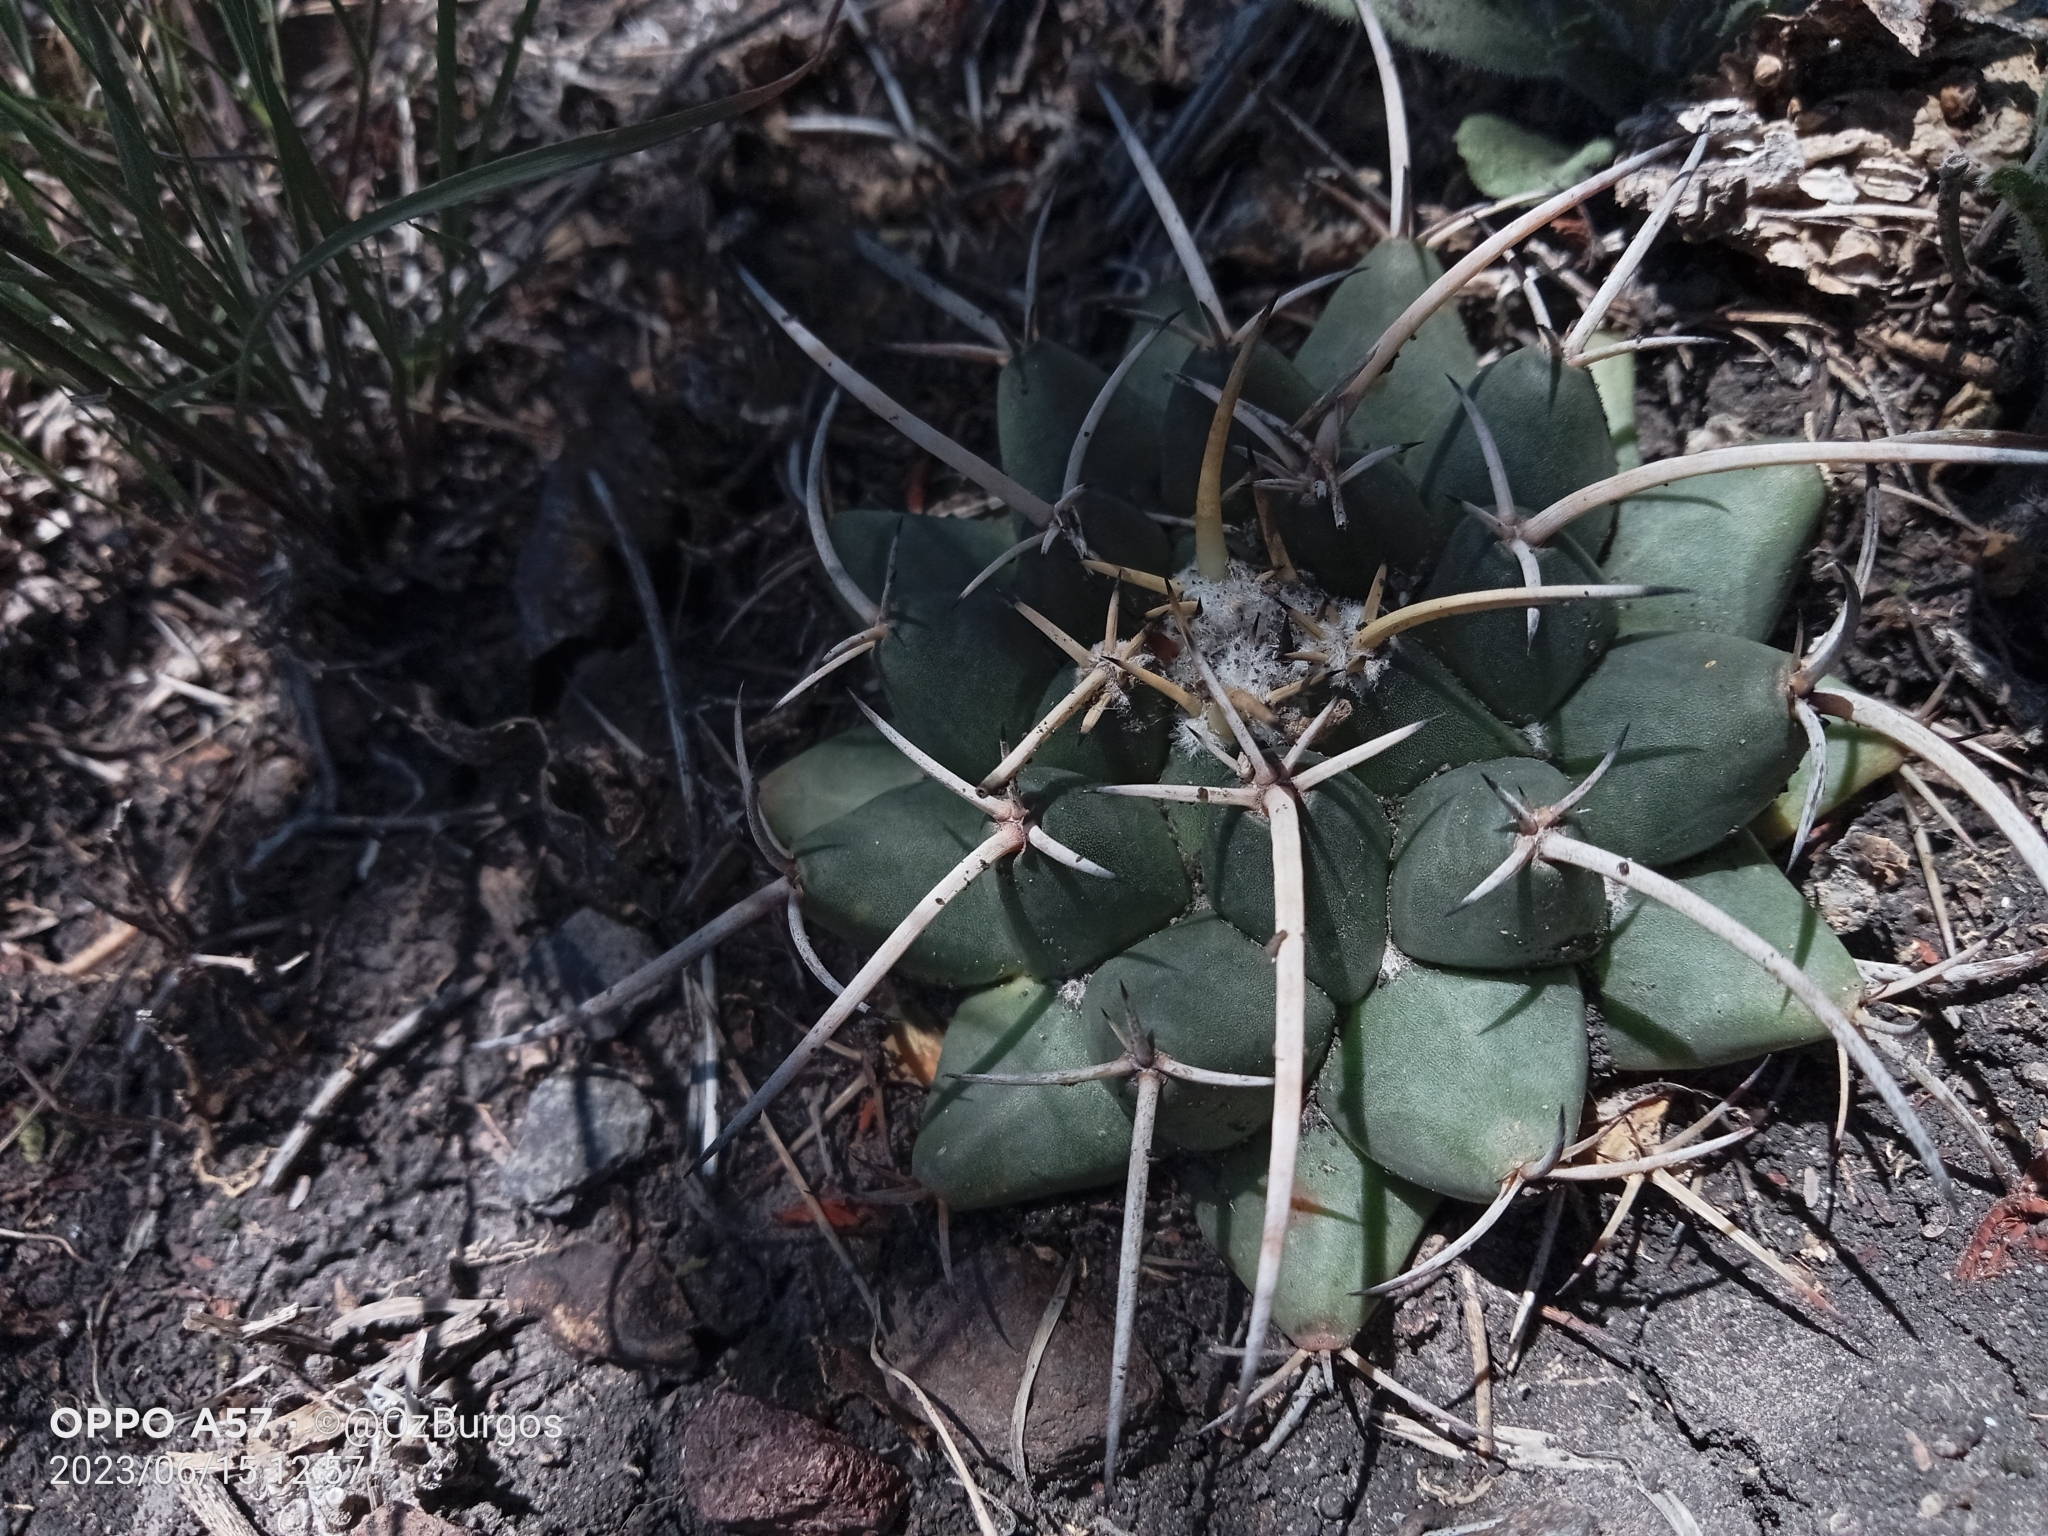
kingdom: Plantae
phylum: Tracheophyta
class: Magnoliopsida
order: Caryophyllales
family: Cactaceae
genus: Mammillaria
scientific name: Mammillaria magnimamma
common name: Mexican pincushion
